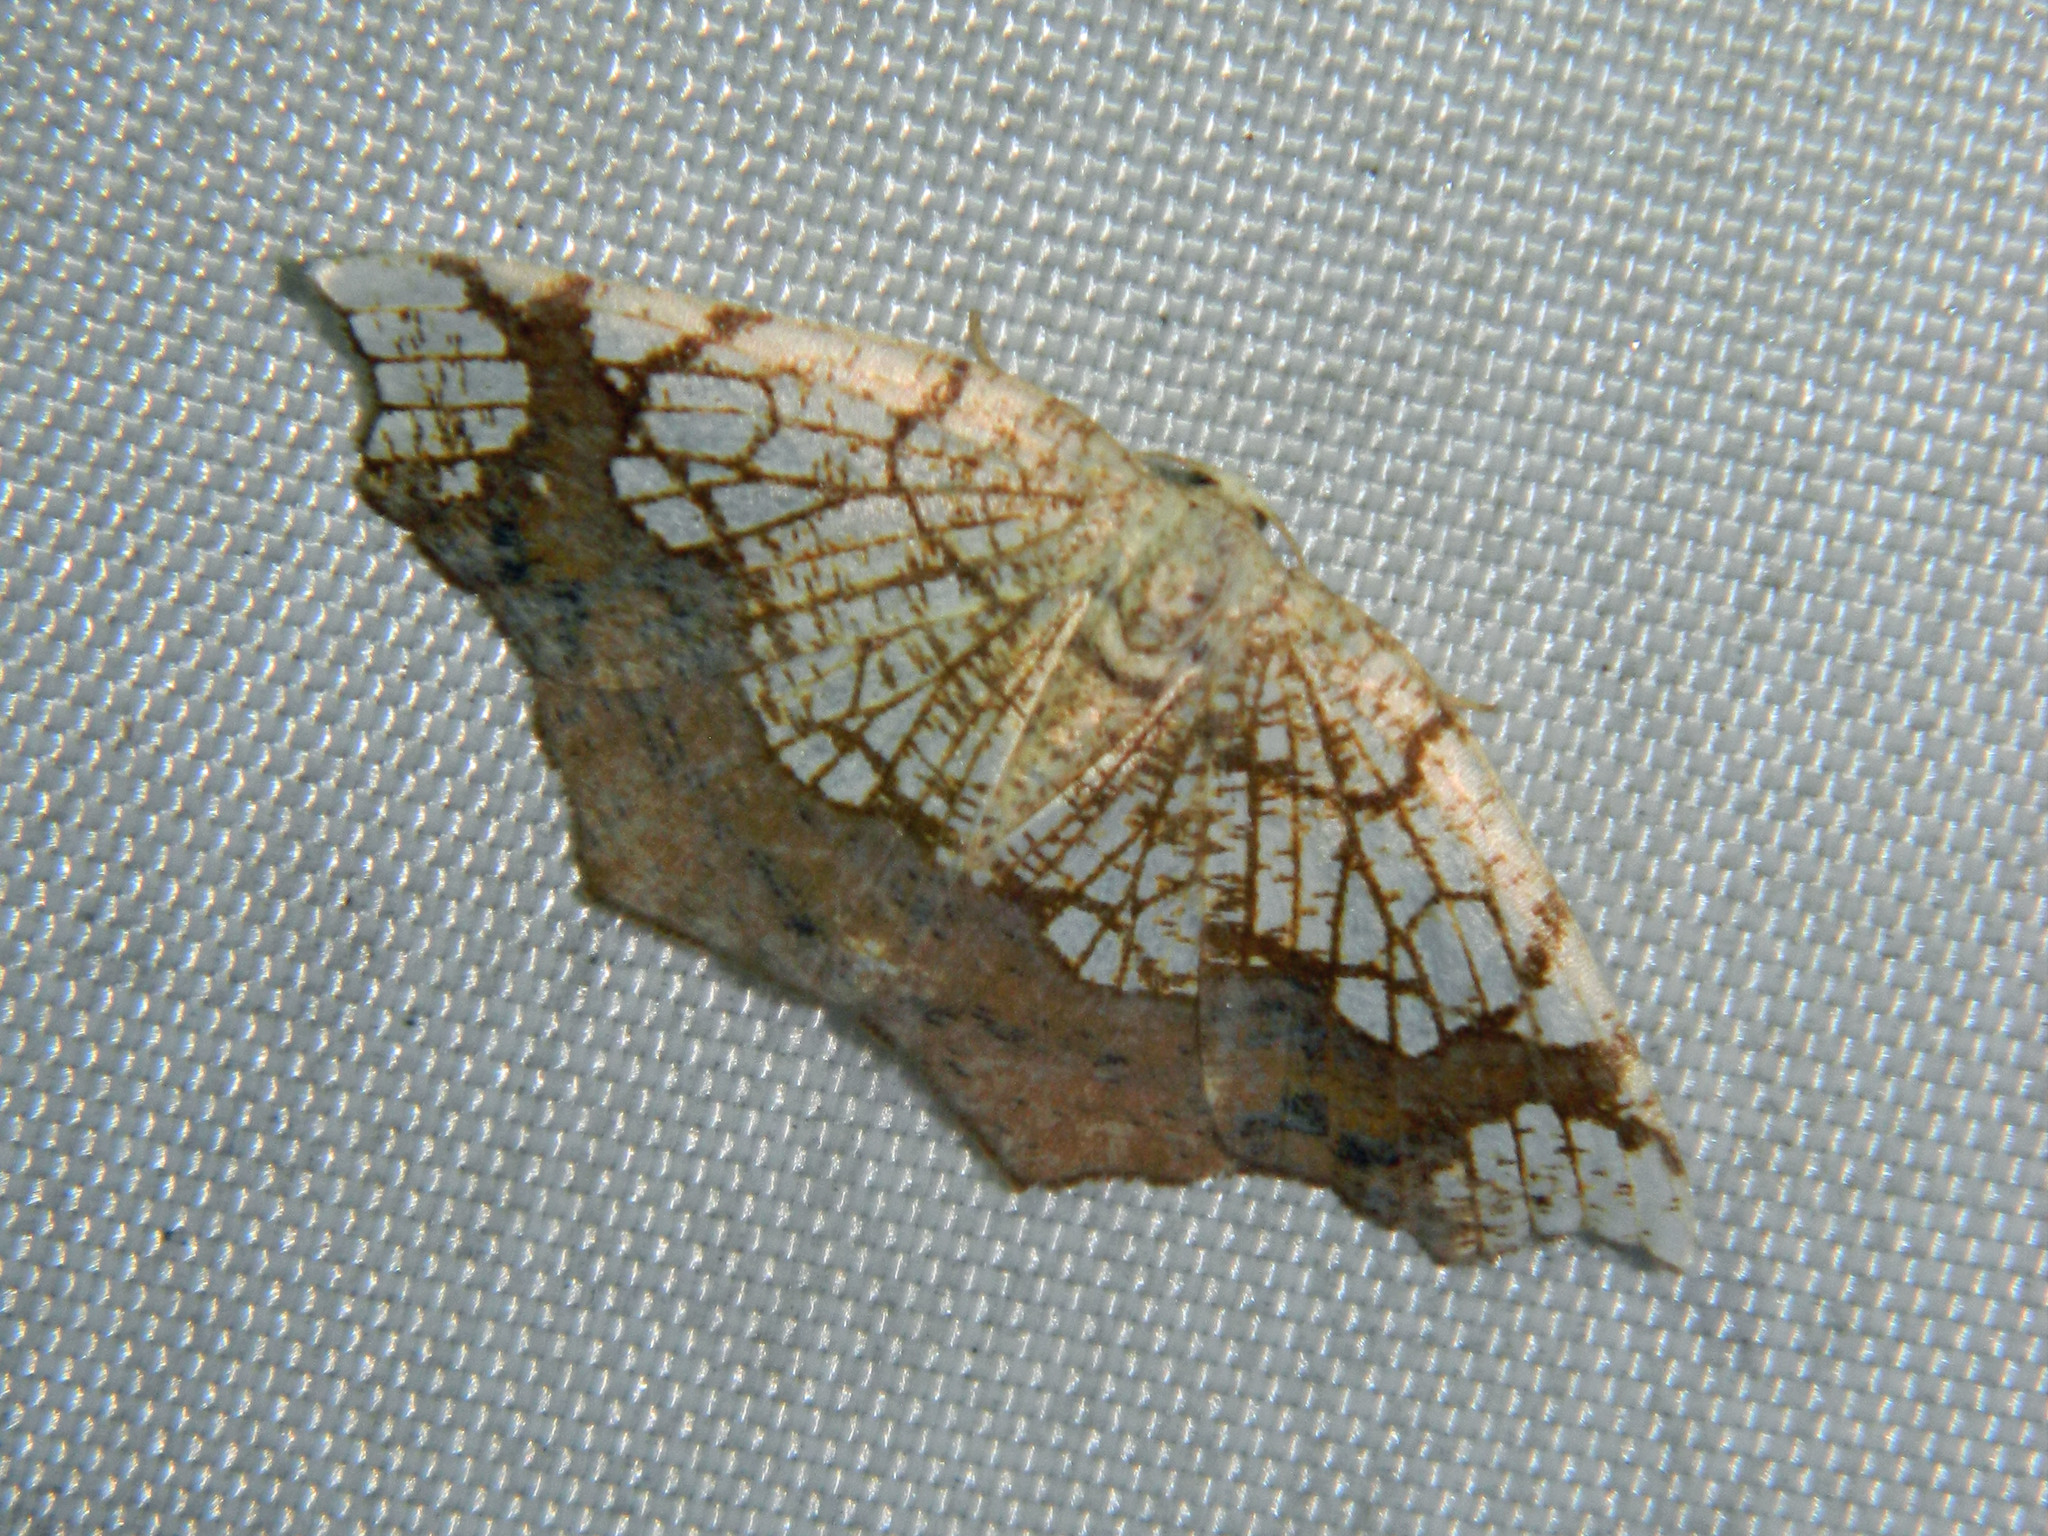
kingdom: Animalia
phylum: Arthropoda
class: Insecta
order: Lepidoptera
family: Geometridae
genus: Nematocampa
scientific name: Nematocampa resistaria
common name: Horned spanworm moth
